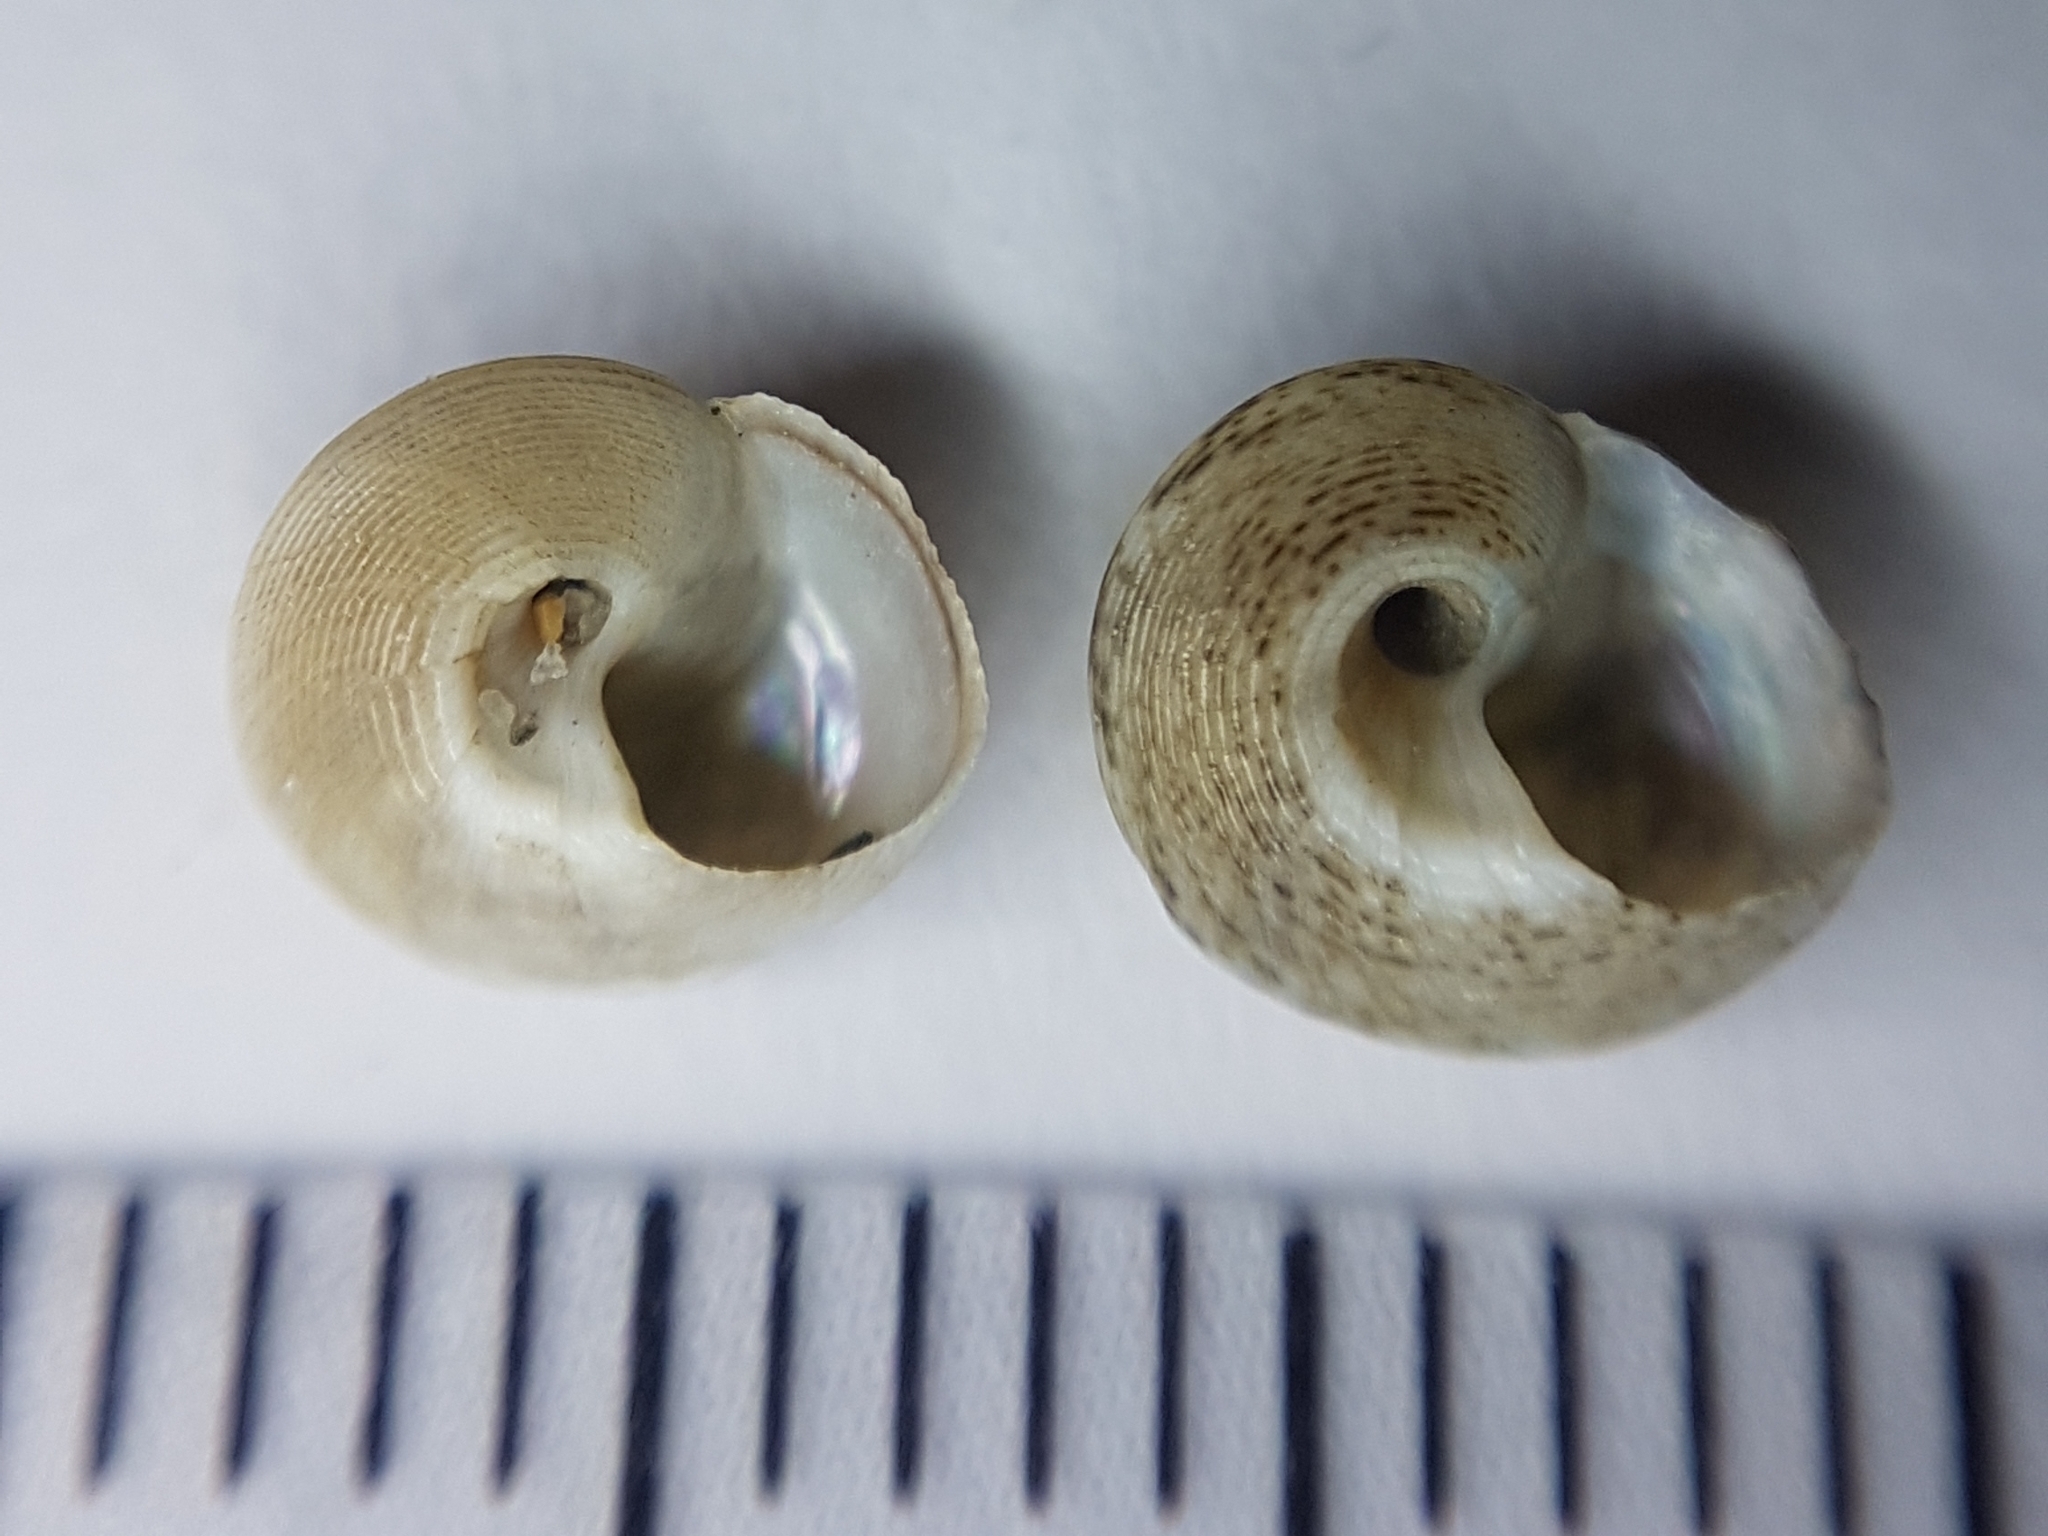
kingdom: Animalia
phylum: Mollusca
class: Gastropoda
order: Trochida
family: Trochidae
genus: Steromphala
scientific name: Steromphala varia
